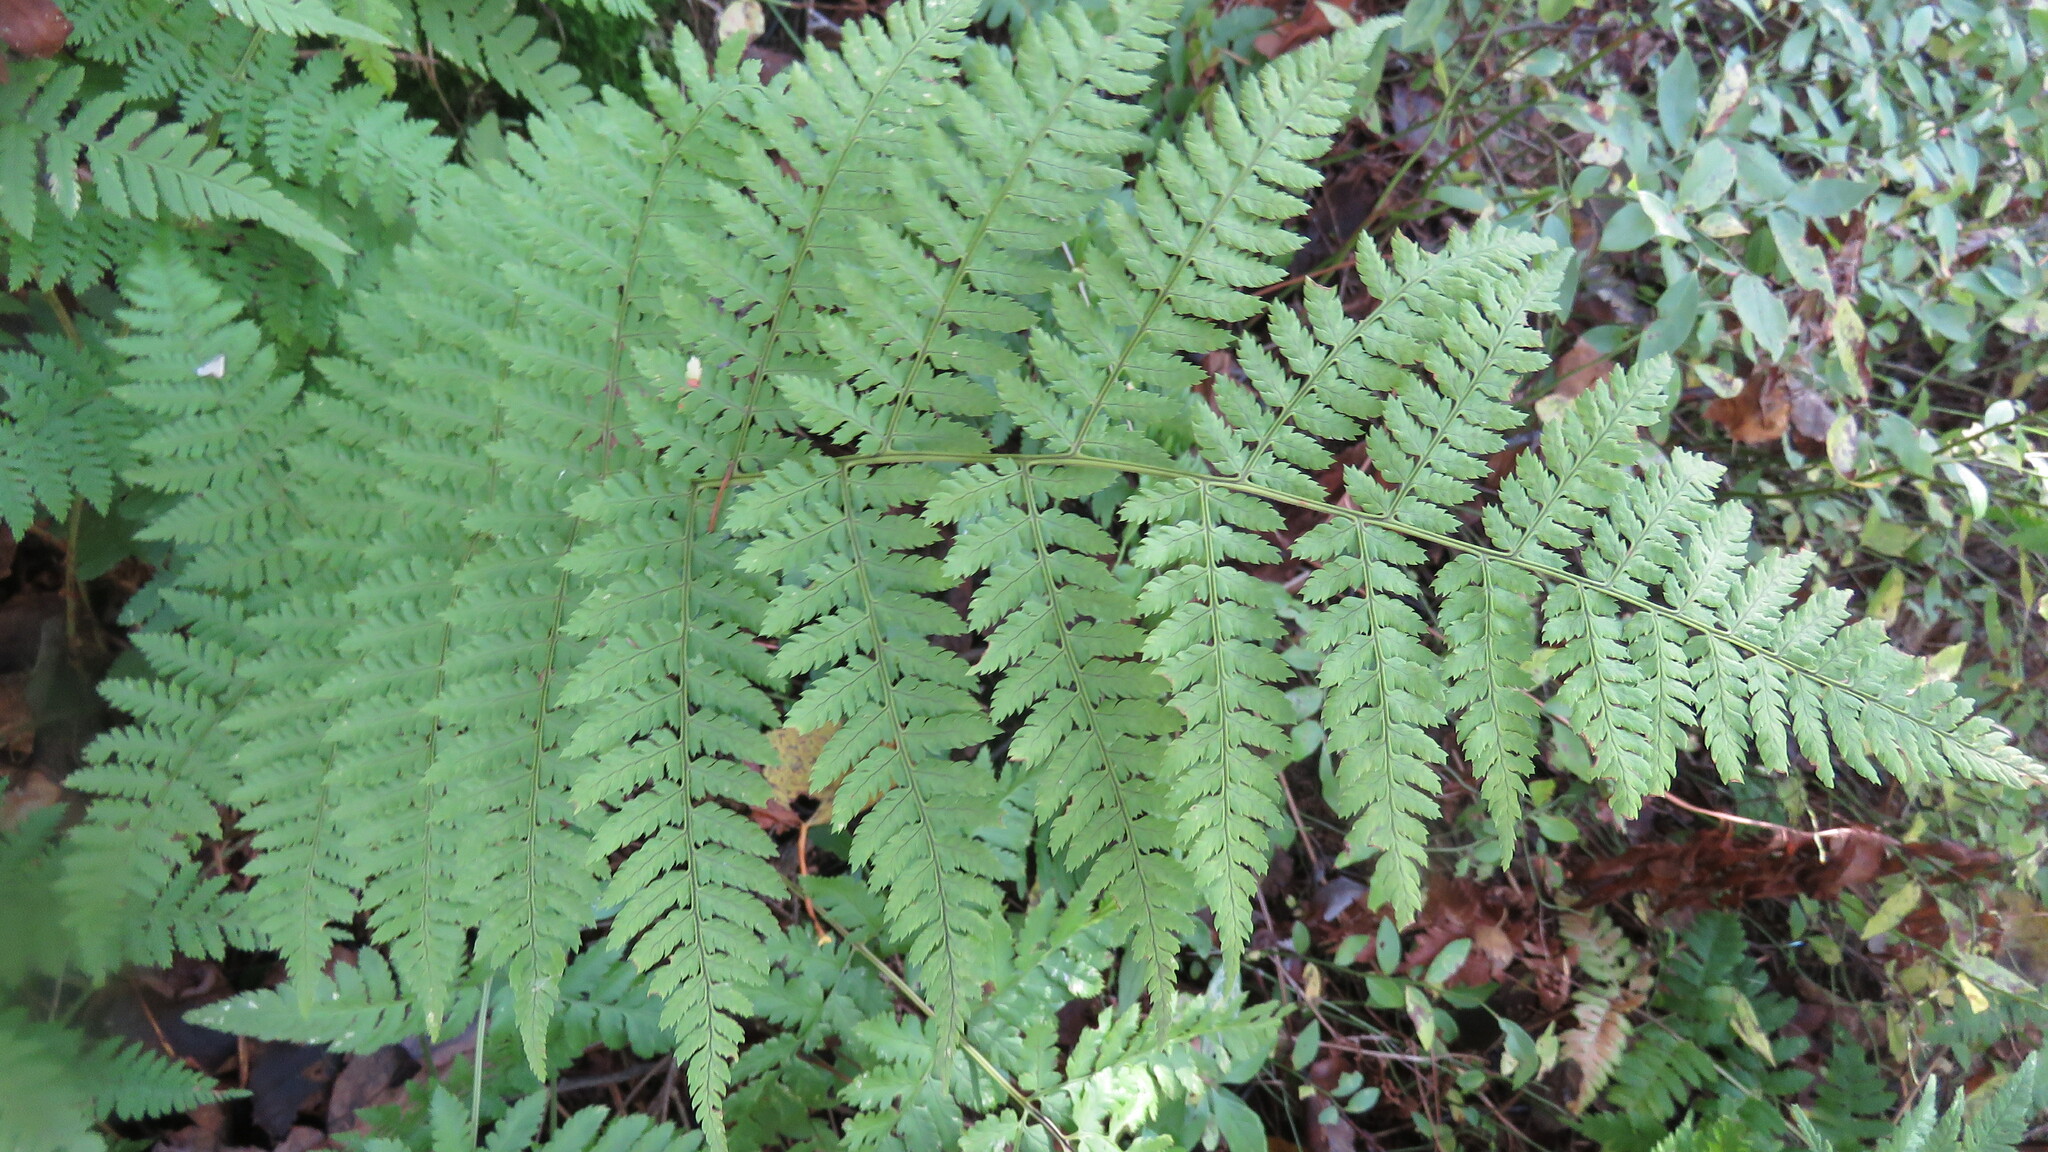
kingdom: Plantae
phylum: Tracheophyta
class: Polypodiopsida
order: Polypodiales
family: Dryopteridaceae
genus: Dryopteris
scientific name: Dryopteris intermedia
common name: Evergreen wood fern
